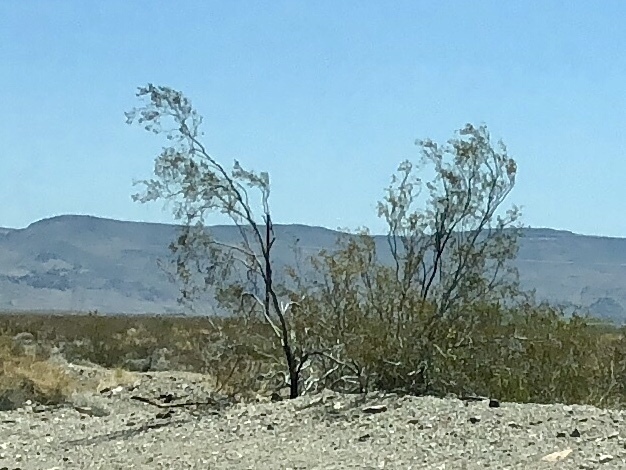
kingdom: Plantae
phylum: Tracheophyta
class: Magnoliopsida
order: Zygophyllales
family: Zygophyllaceae
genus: Larrea
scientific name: Larrea tridentata
